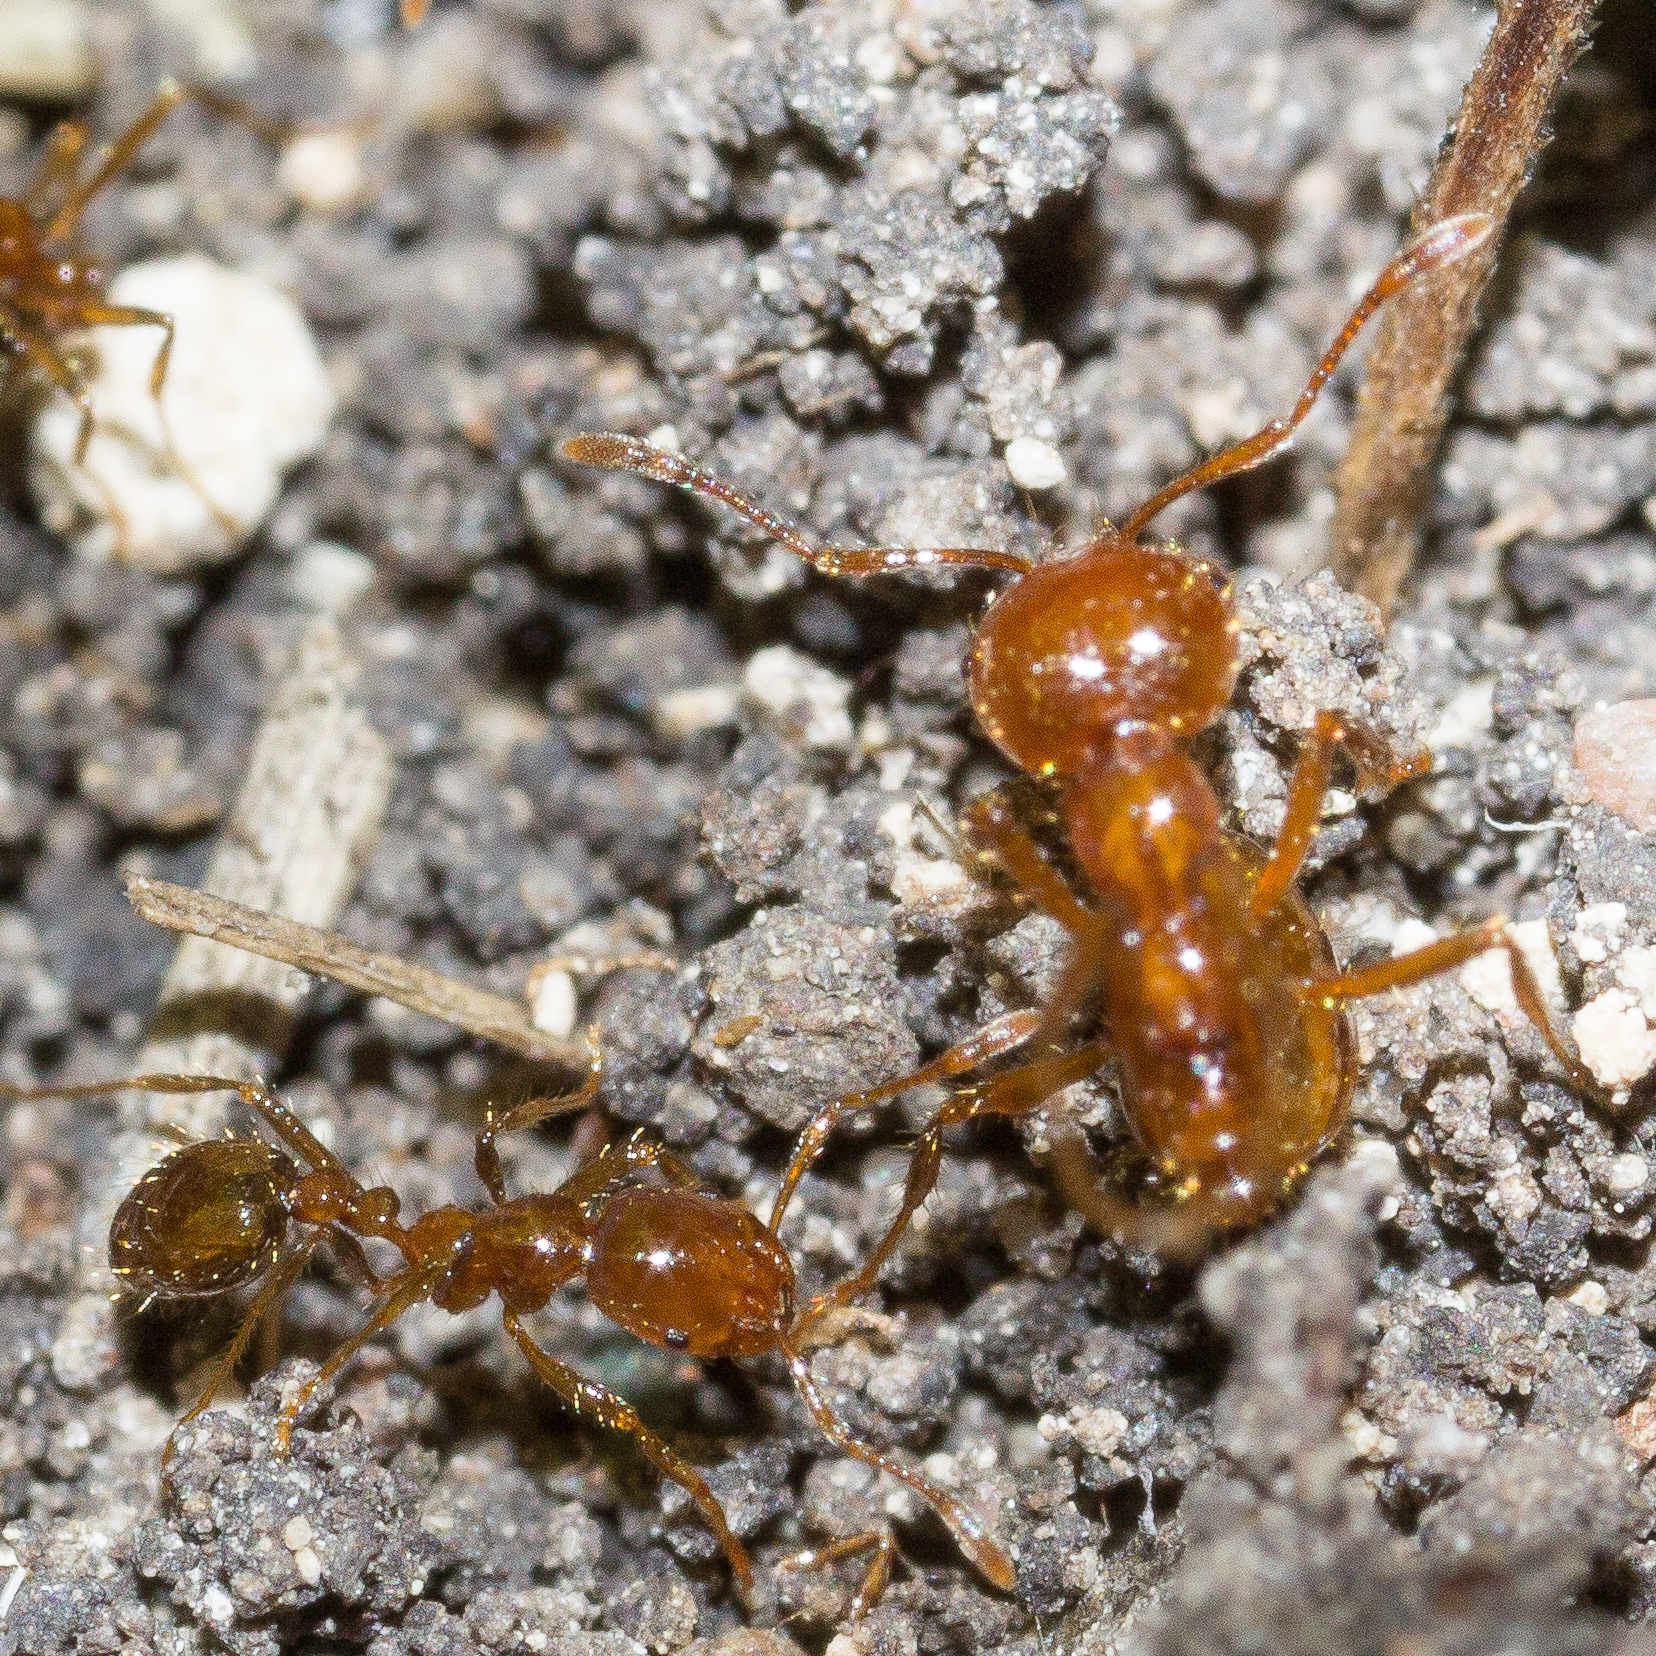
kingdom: Animalia
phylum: Arthropoda
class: Insecta
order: Hymenoptera
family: Formicidae
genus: Solenopsis
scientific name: Solenopsis geminata
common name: Tropical fire ant
